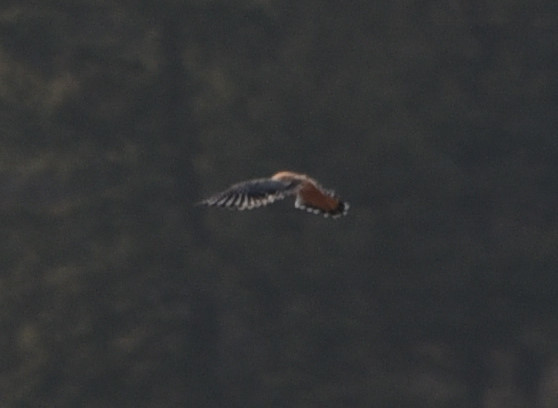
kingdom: Animalia
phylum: Chordata
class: Aves
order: Falconiformes
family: Falconidae
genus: Falco
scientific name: Falco sparverius
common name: American kestrel
